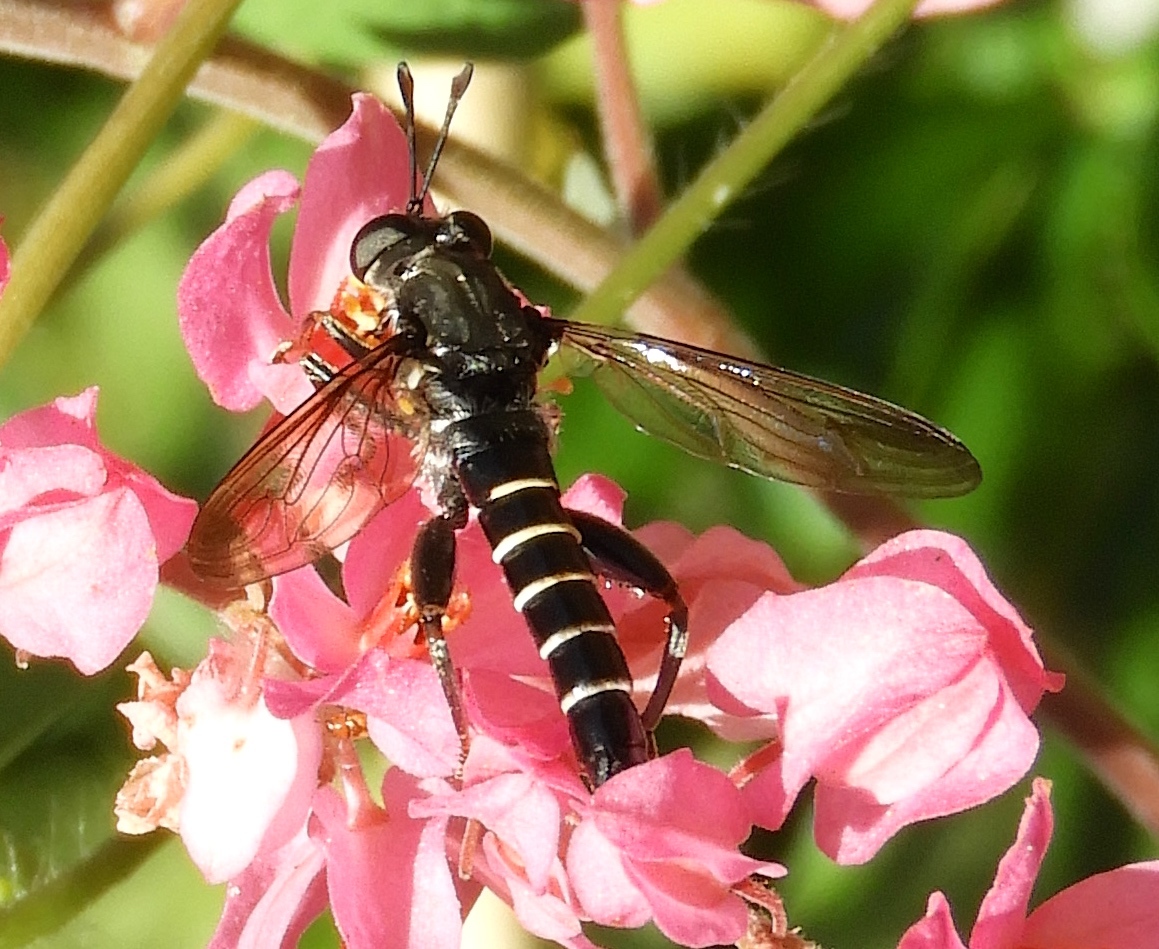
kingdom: Animalia
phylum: Arthropoda
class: Insecta
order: Diptera
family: Mydidae
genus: Mydas
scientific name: Mydas
